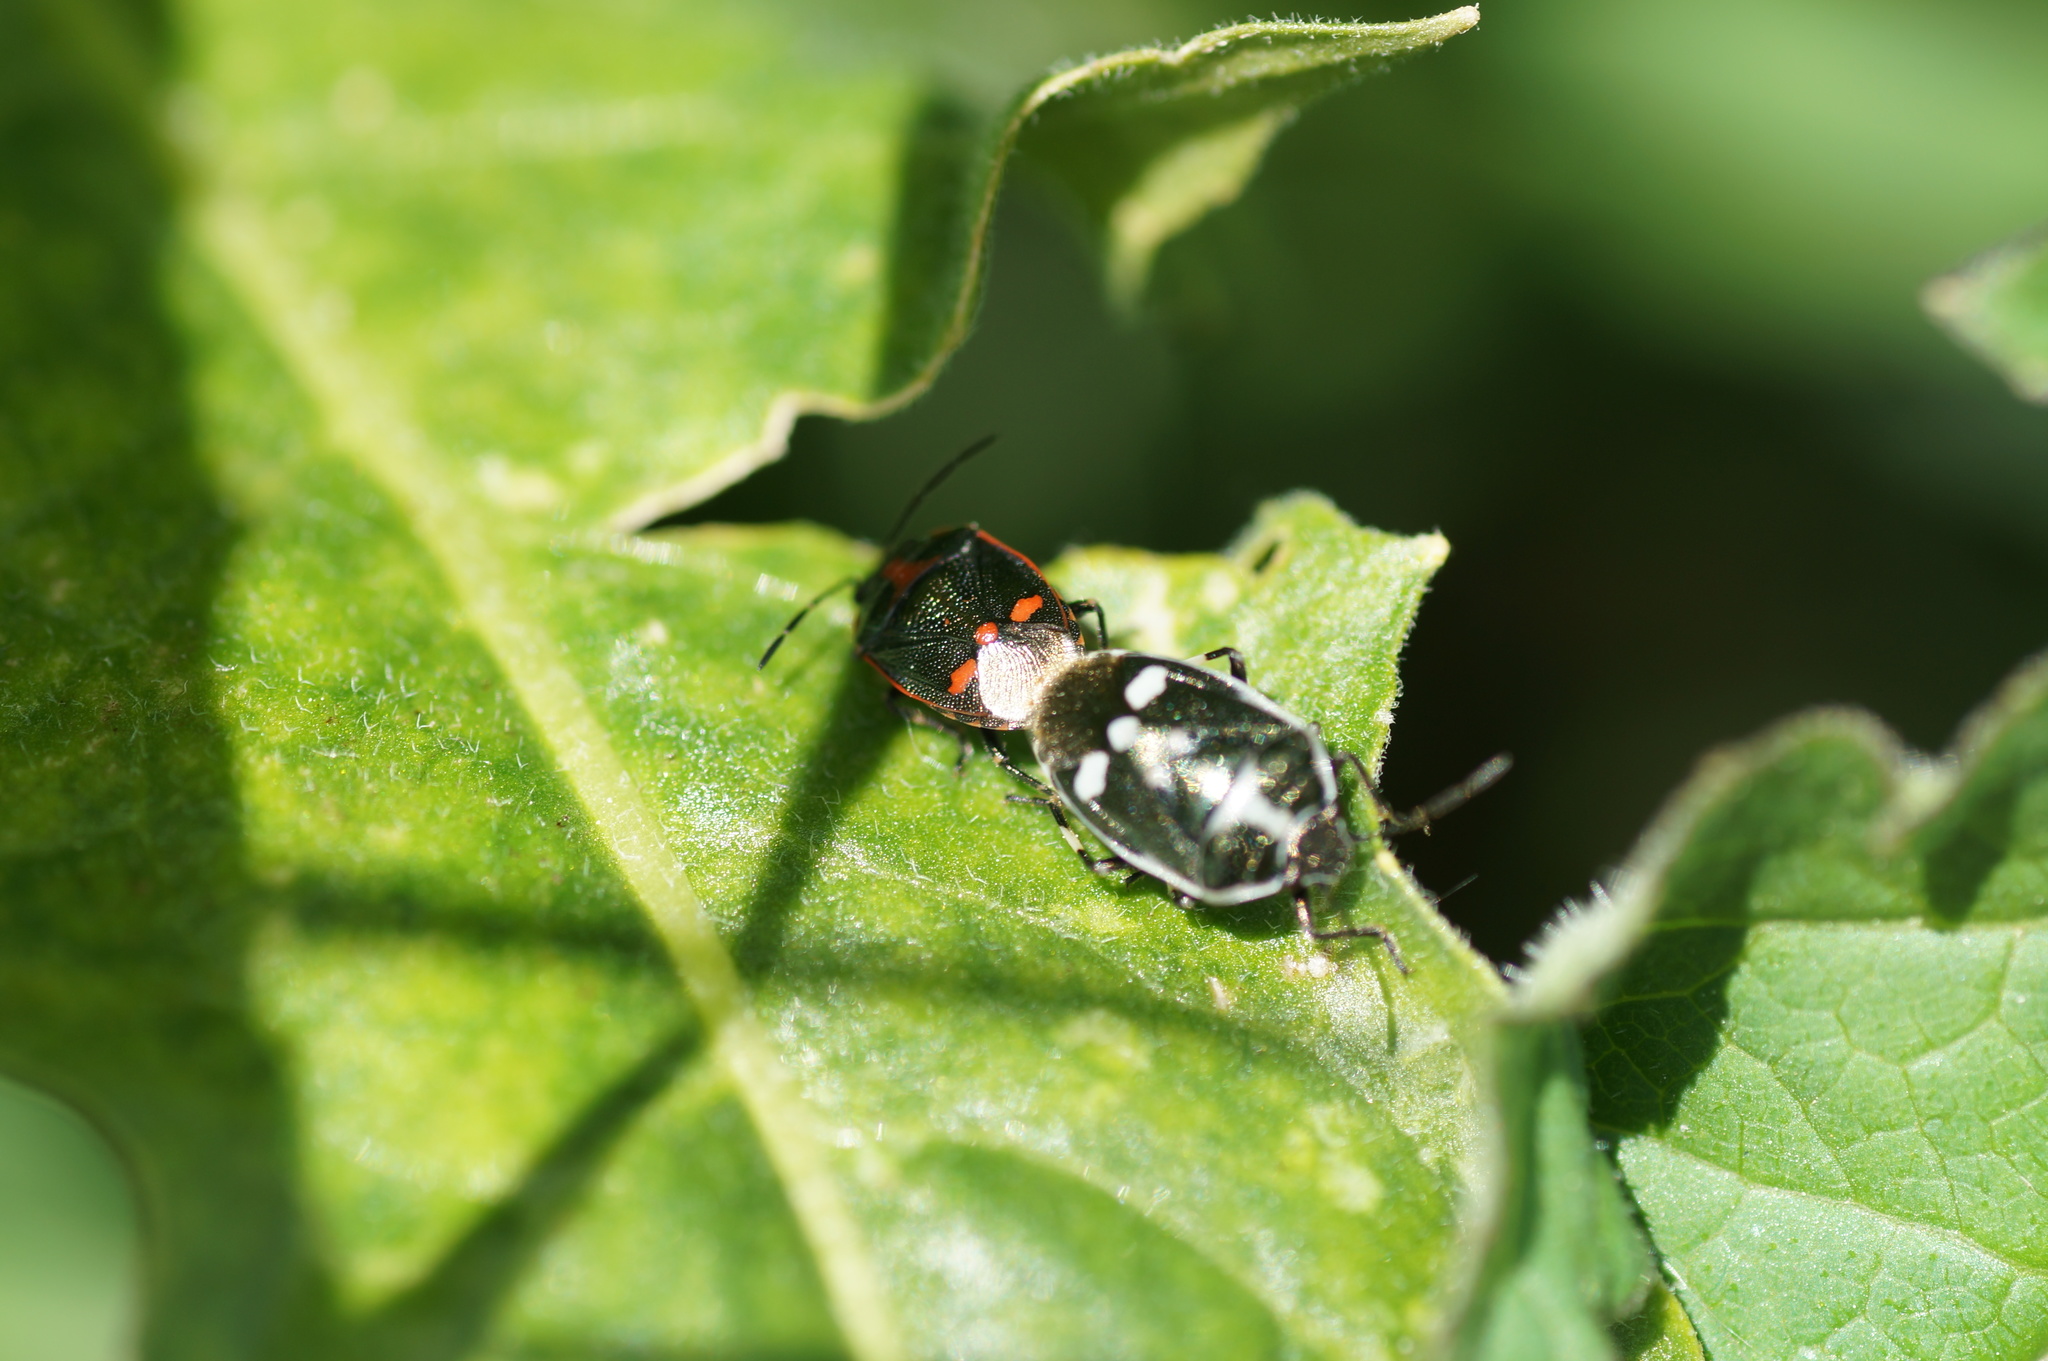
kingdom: Animalia
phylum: Arthropoda
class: Insecta
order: Hemiptera
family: Pentatomidae
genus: Eurydema
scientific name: Eurydema oleracea
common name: Cabbage bug
